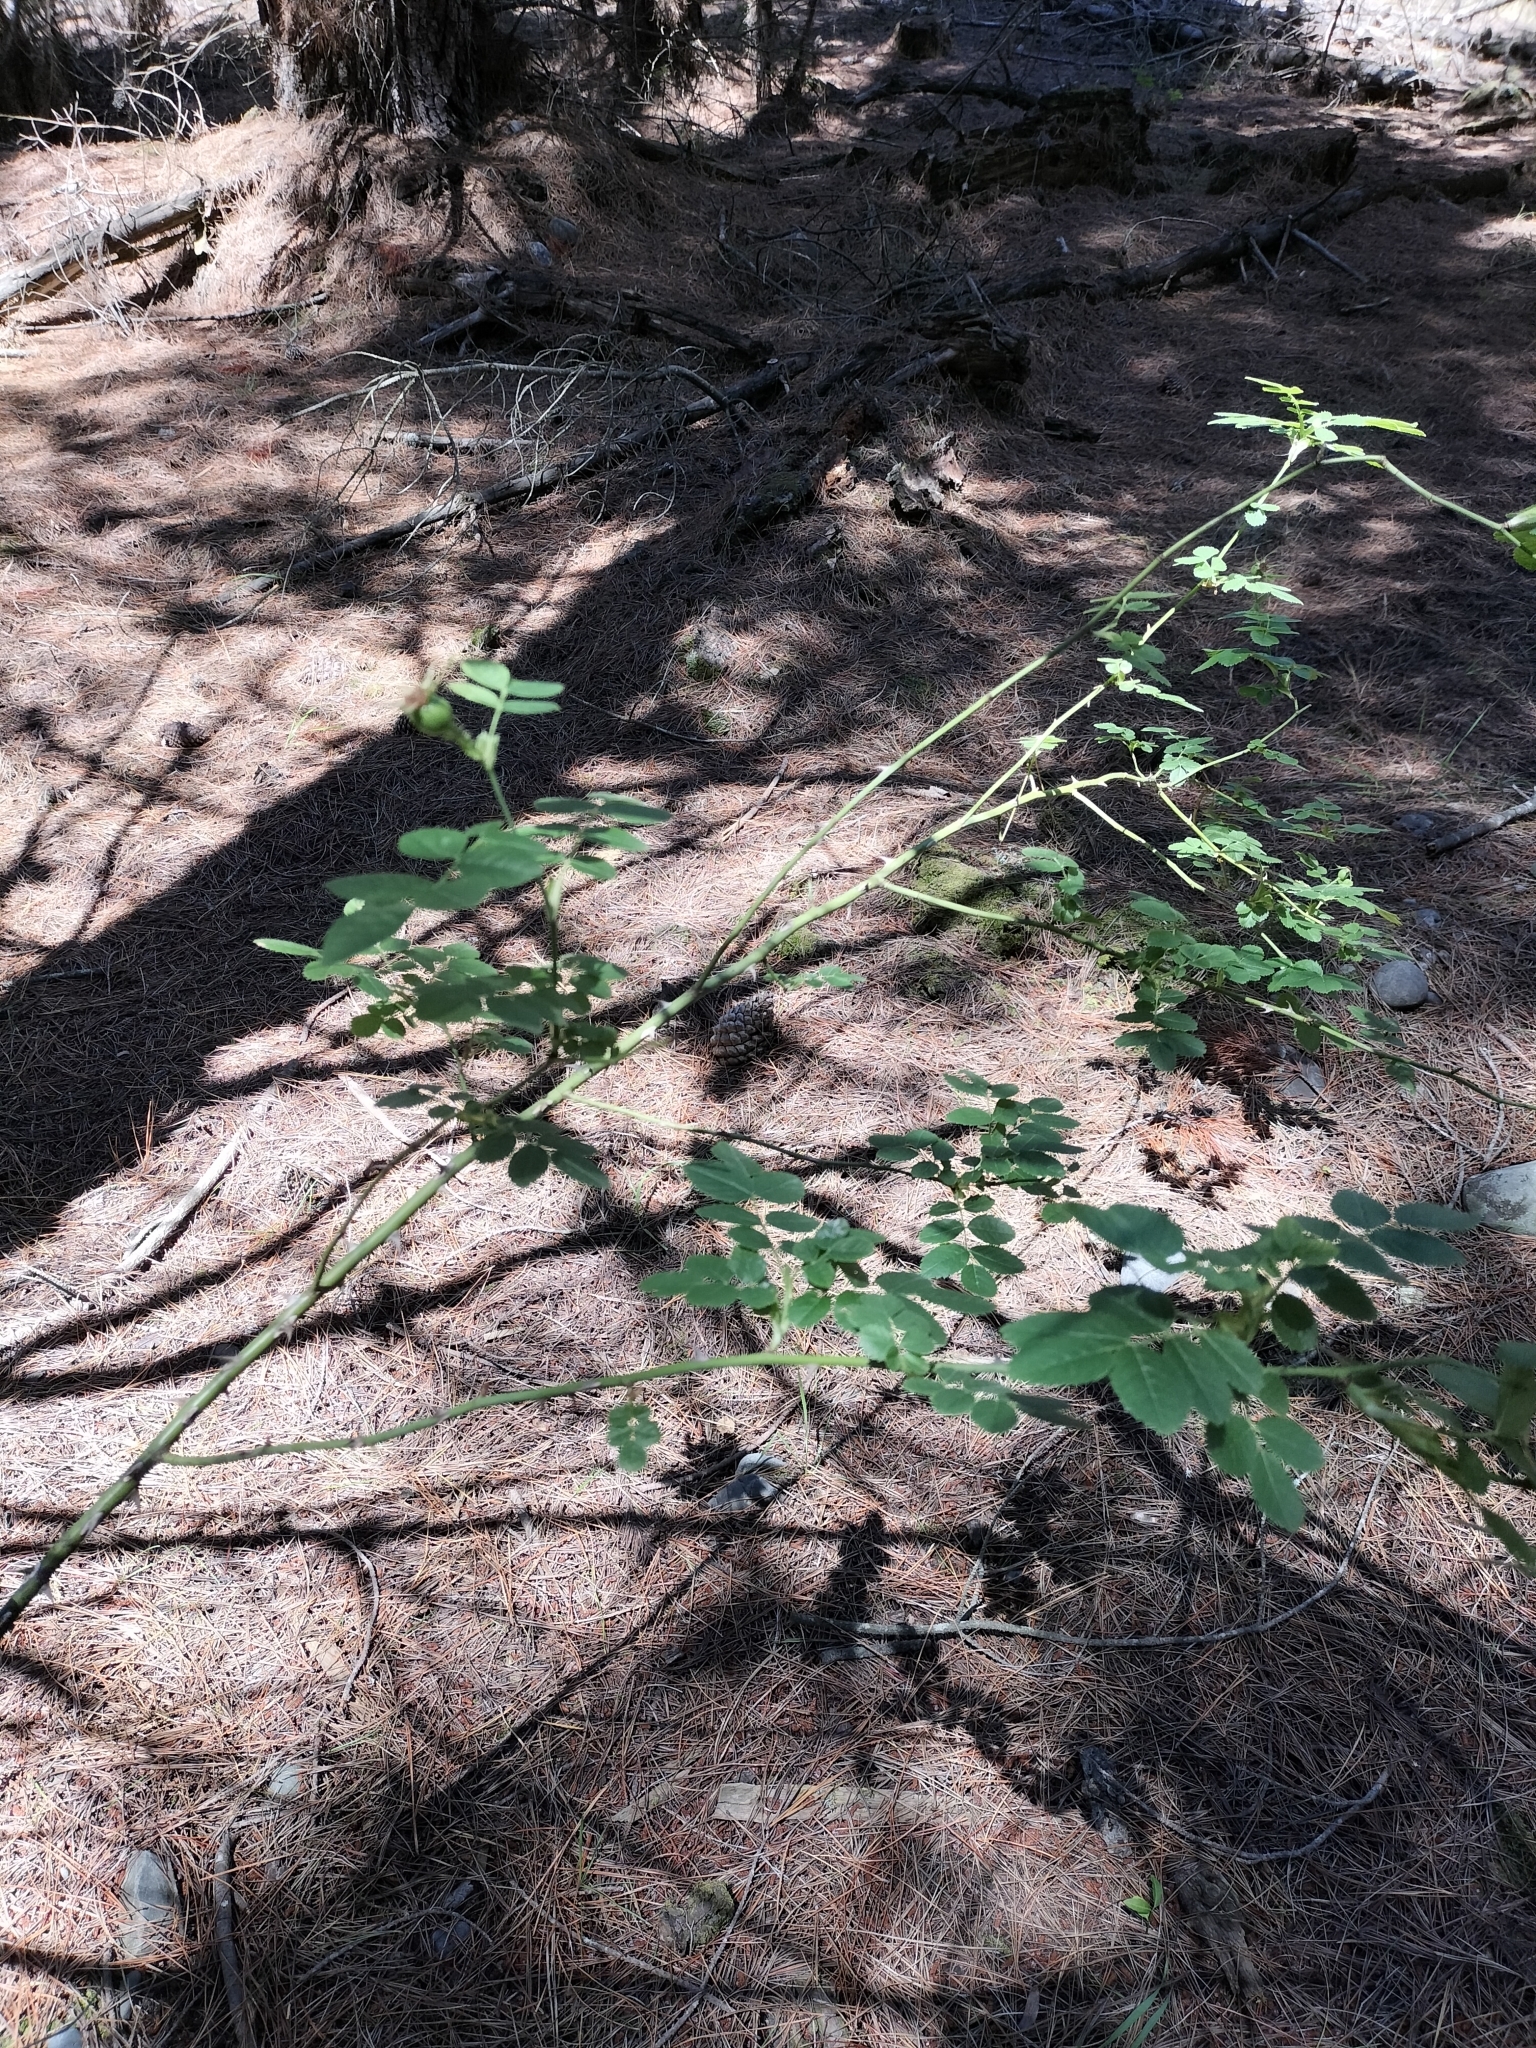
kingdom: Plantae
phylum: Tracheophyta
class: Magnoliopsida
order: Rosales
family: Rosaceae
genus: Rosa
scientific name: Rosa
